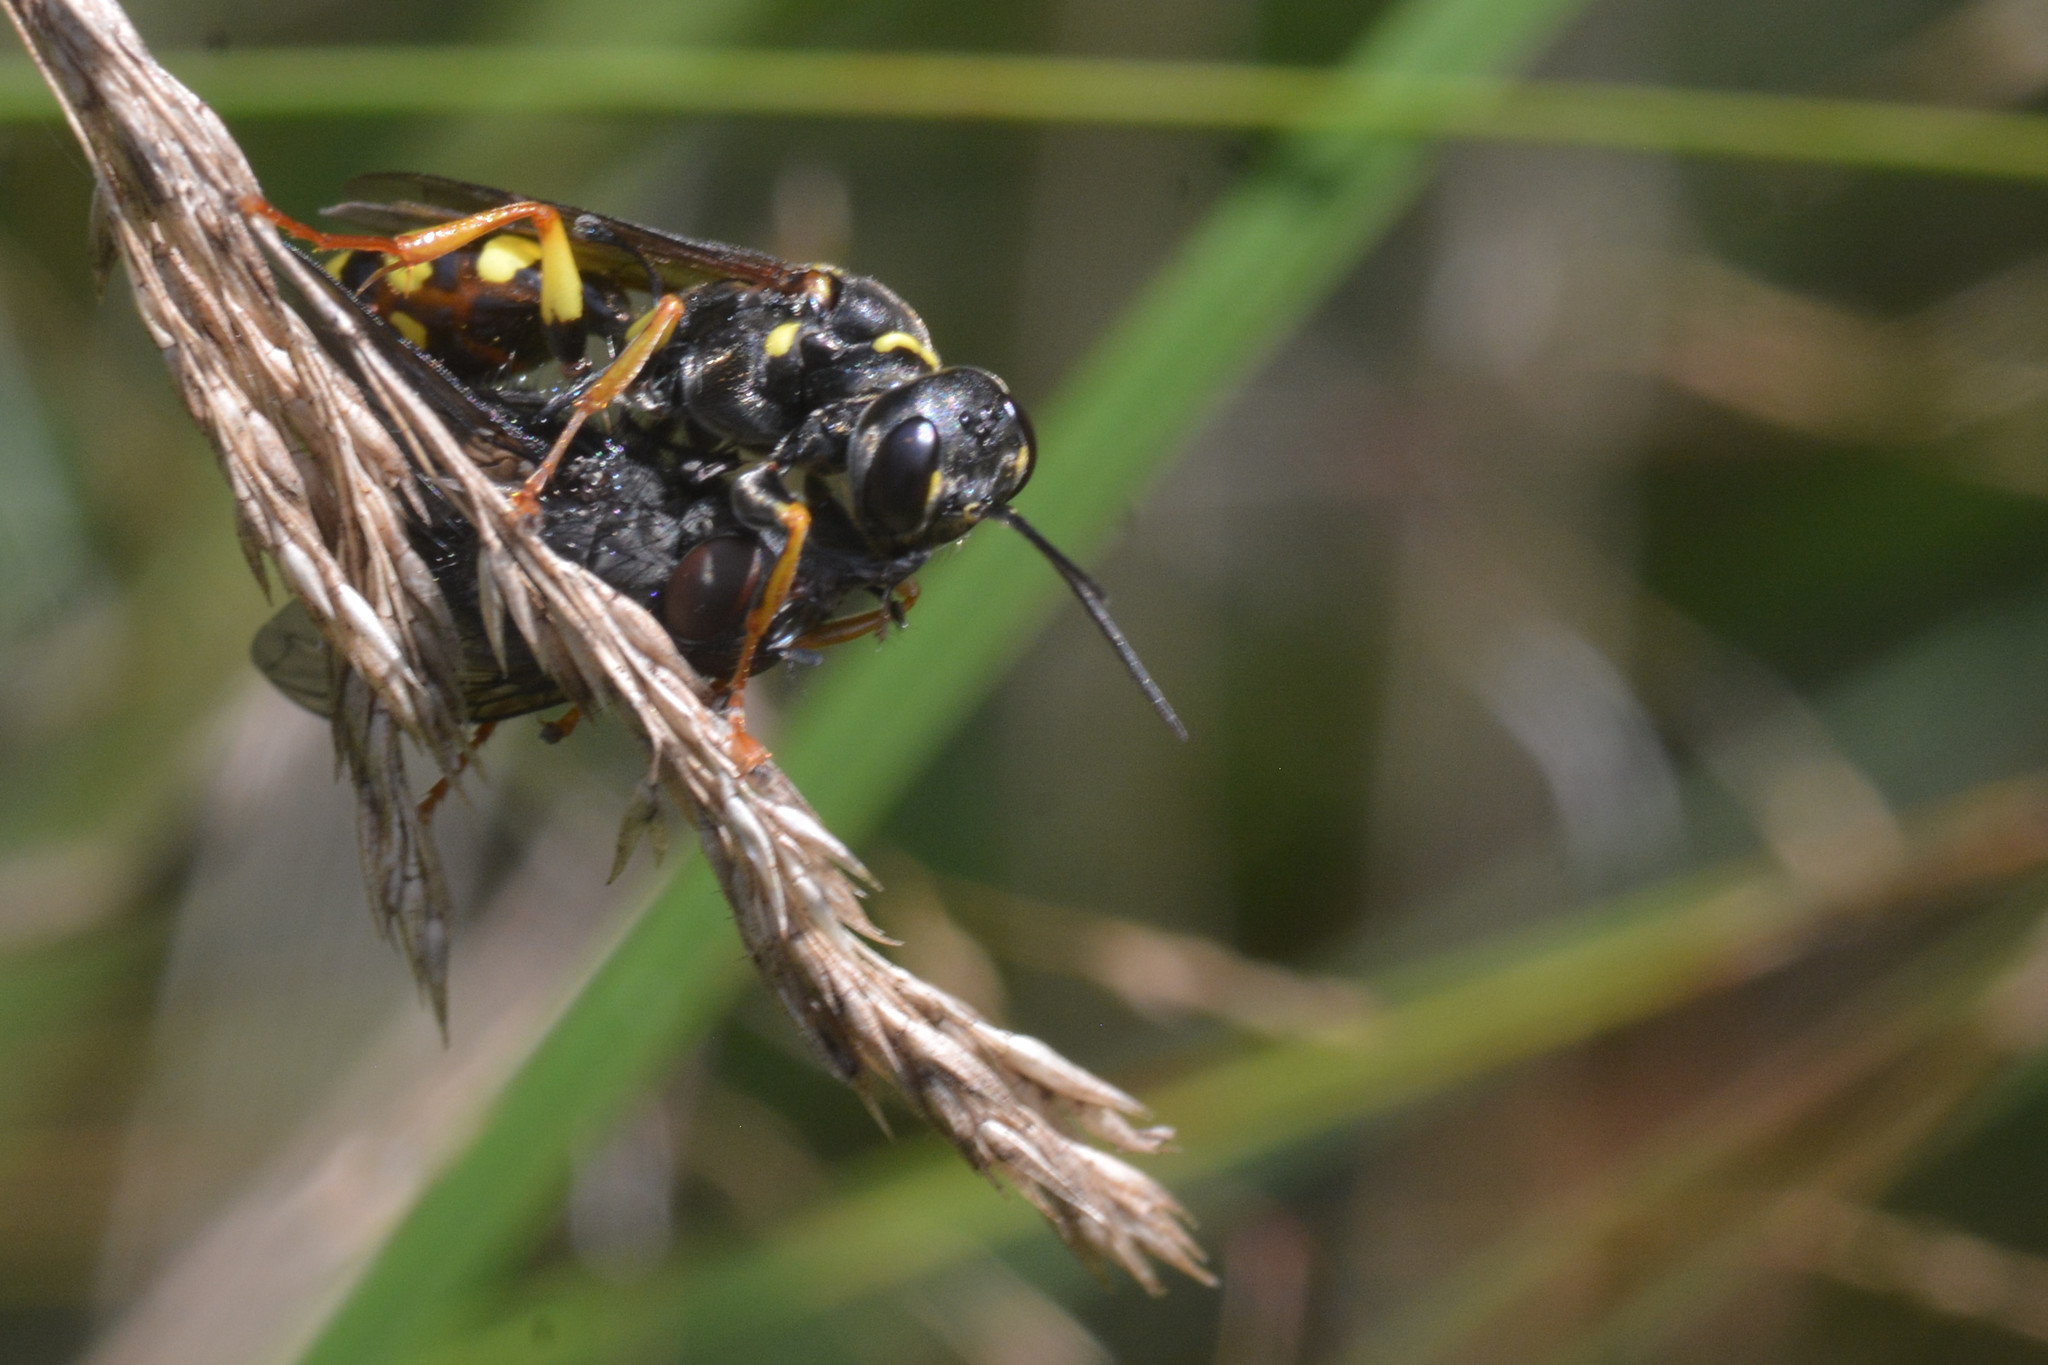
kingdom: Animalia
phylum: Arthropoda
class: Insecta
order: Hymenoptera
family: Crabronidae
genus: Mellinus
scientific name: Mellinus arvensis
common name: Field digger wasp
